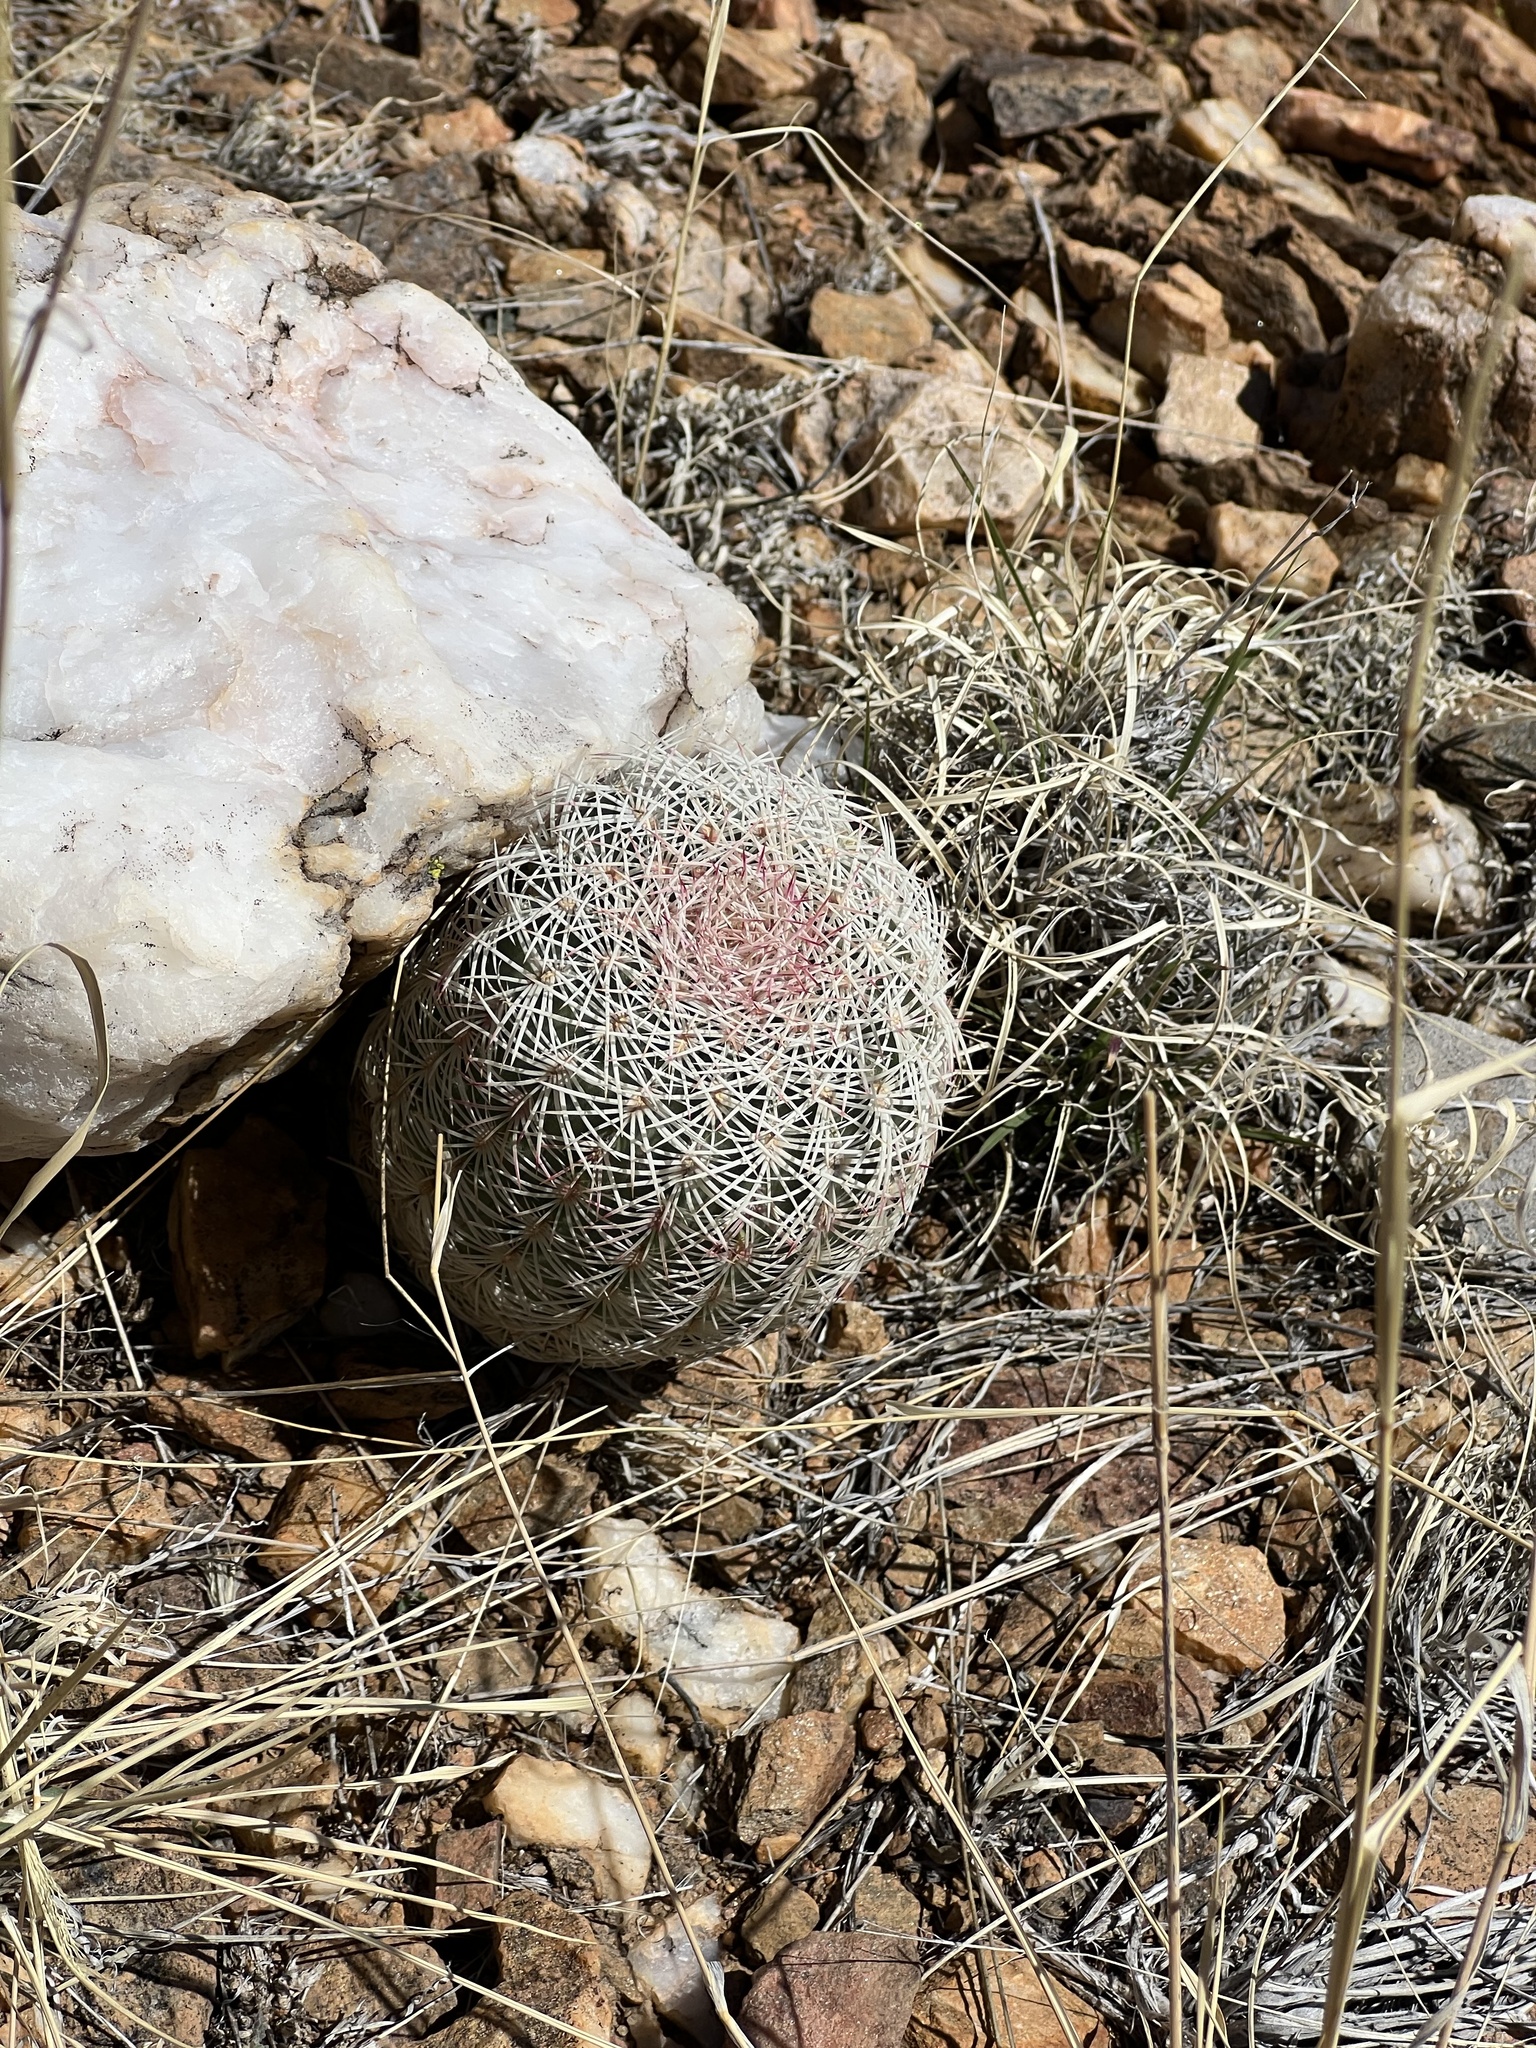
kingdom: Plantae
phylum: Tracheophyta
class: Magnoliopsida
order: Caryophyllales
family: Cactaceae
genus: Echinocereus
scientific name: Echinocereus rigidissimus
